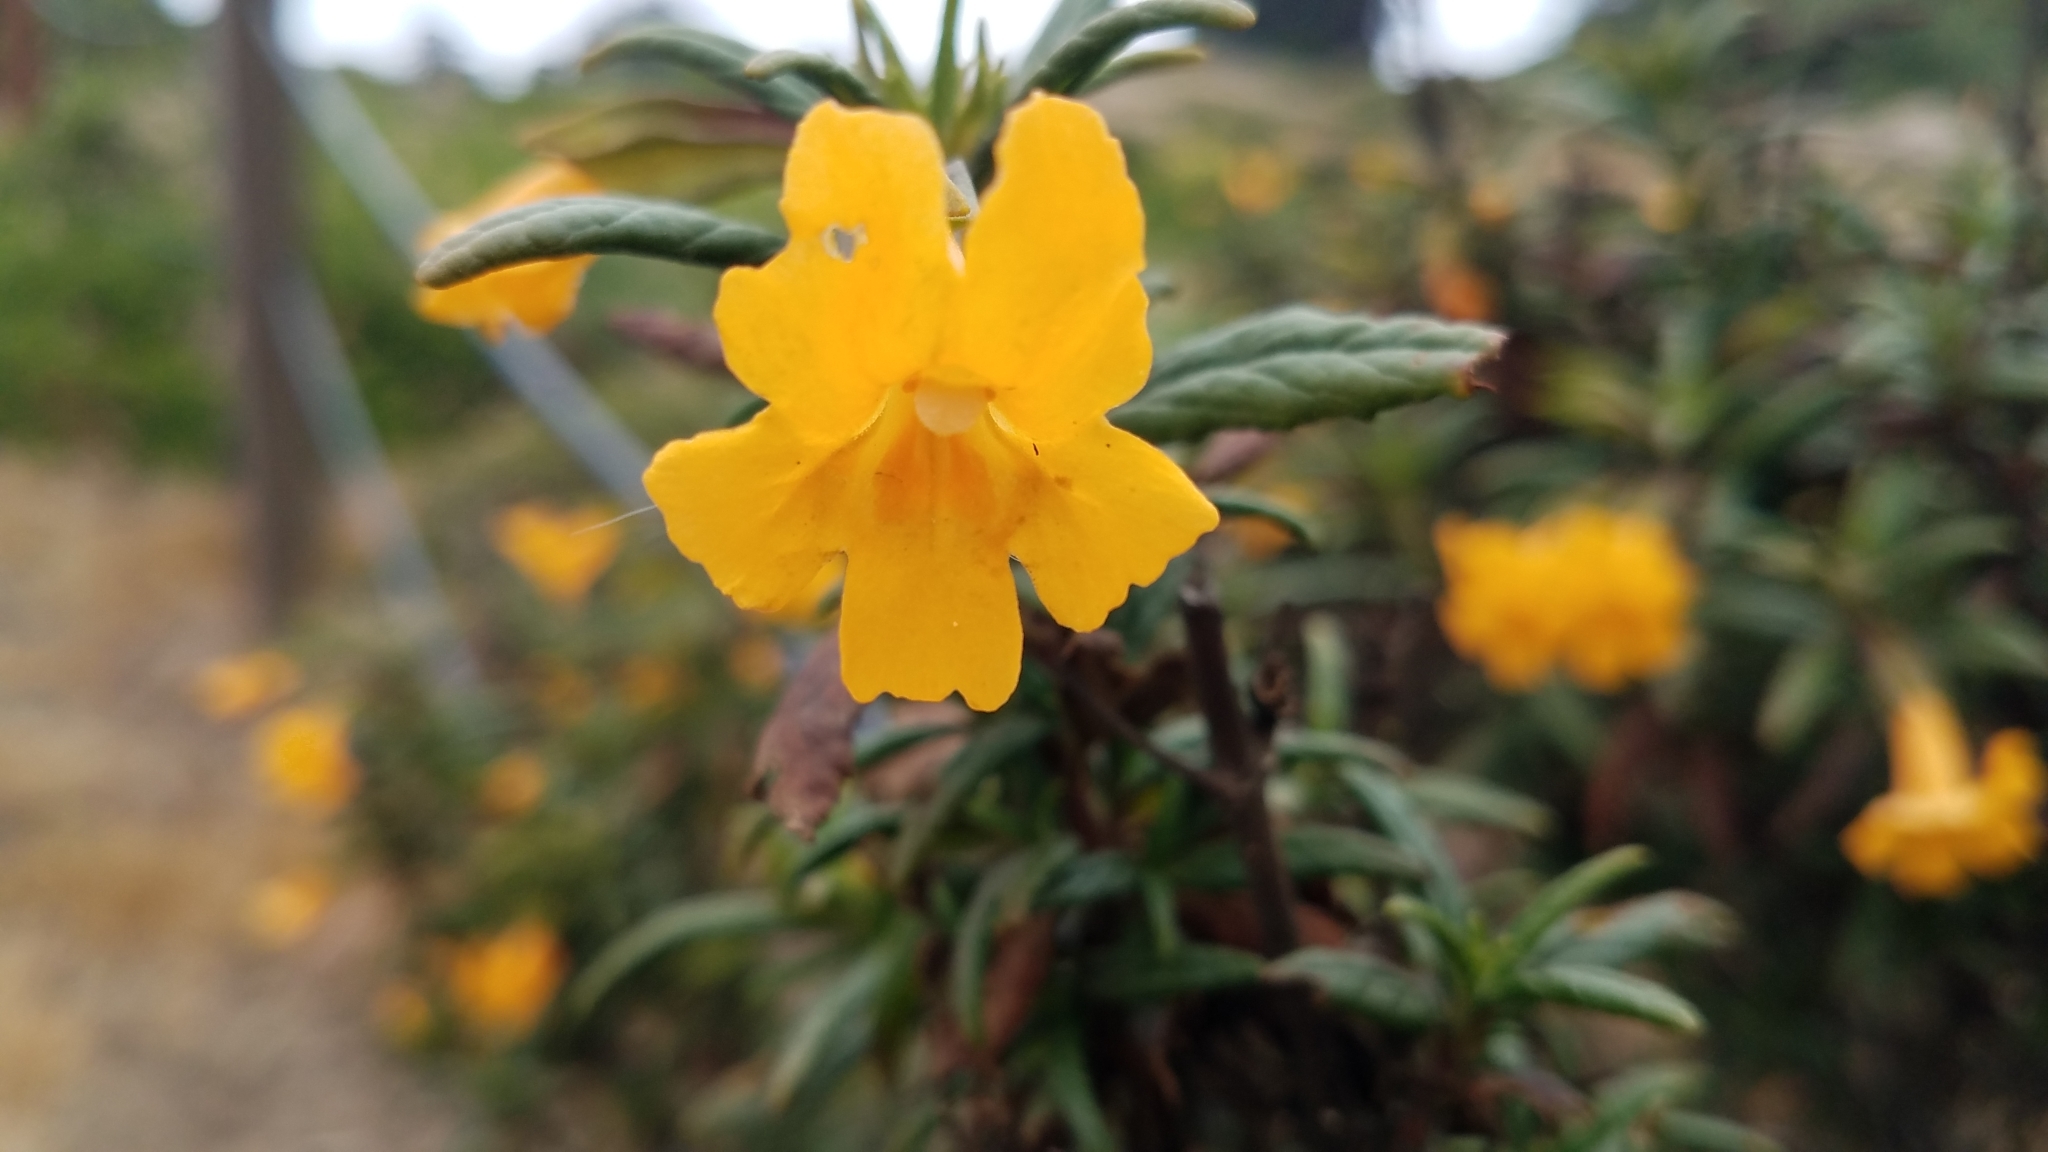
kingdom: Plantae
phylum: Tracheophyta
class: Magnoliopsida
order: Lamiales
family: Phrymaceae
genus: Diplacus
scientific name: Diplacus aurantiacus
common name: Bush monkey-flower
